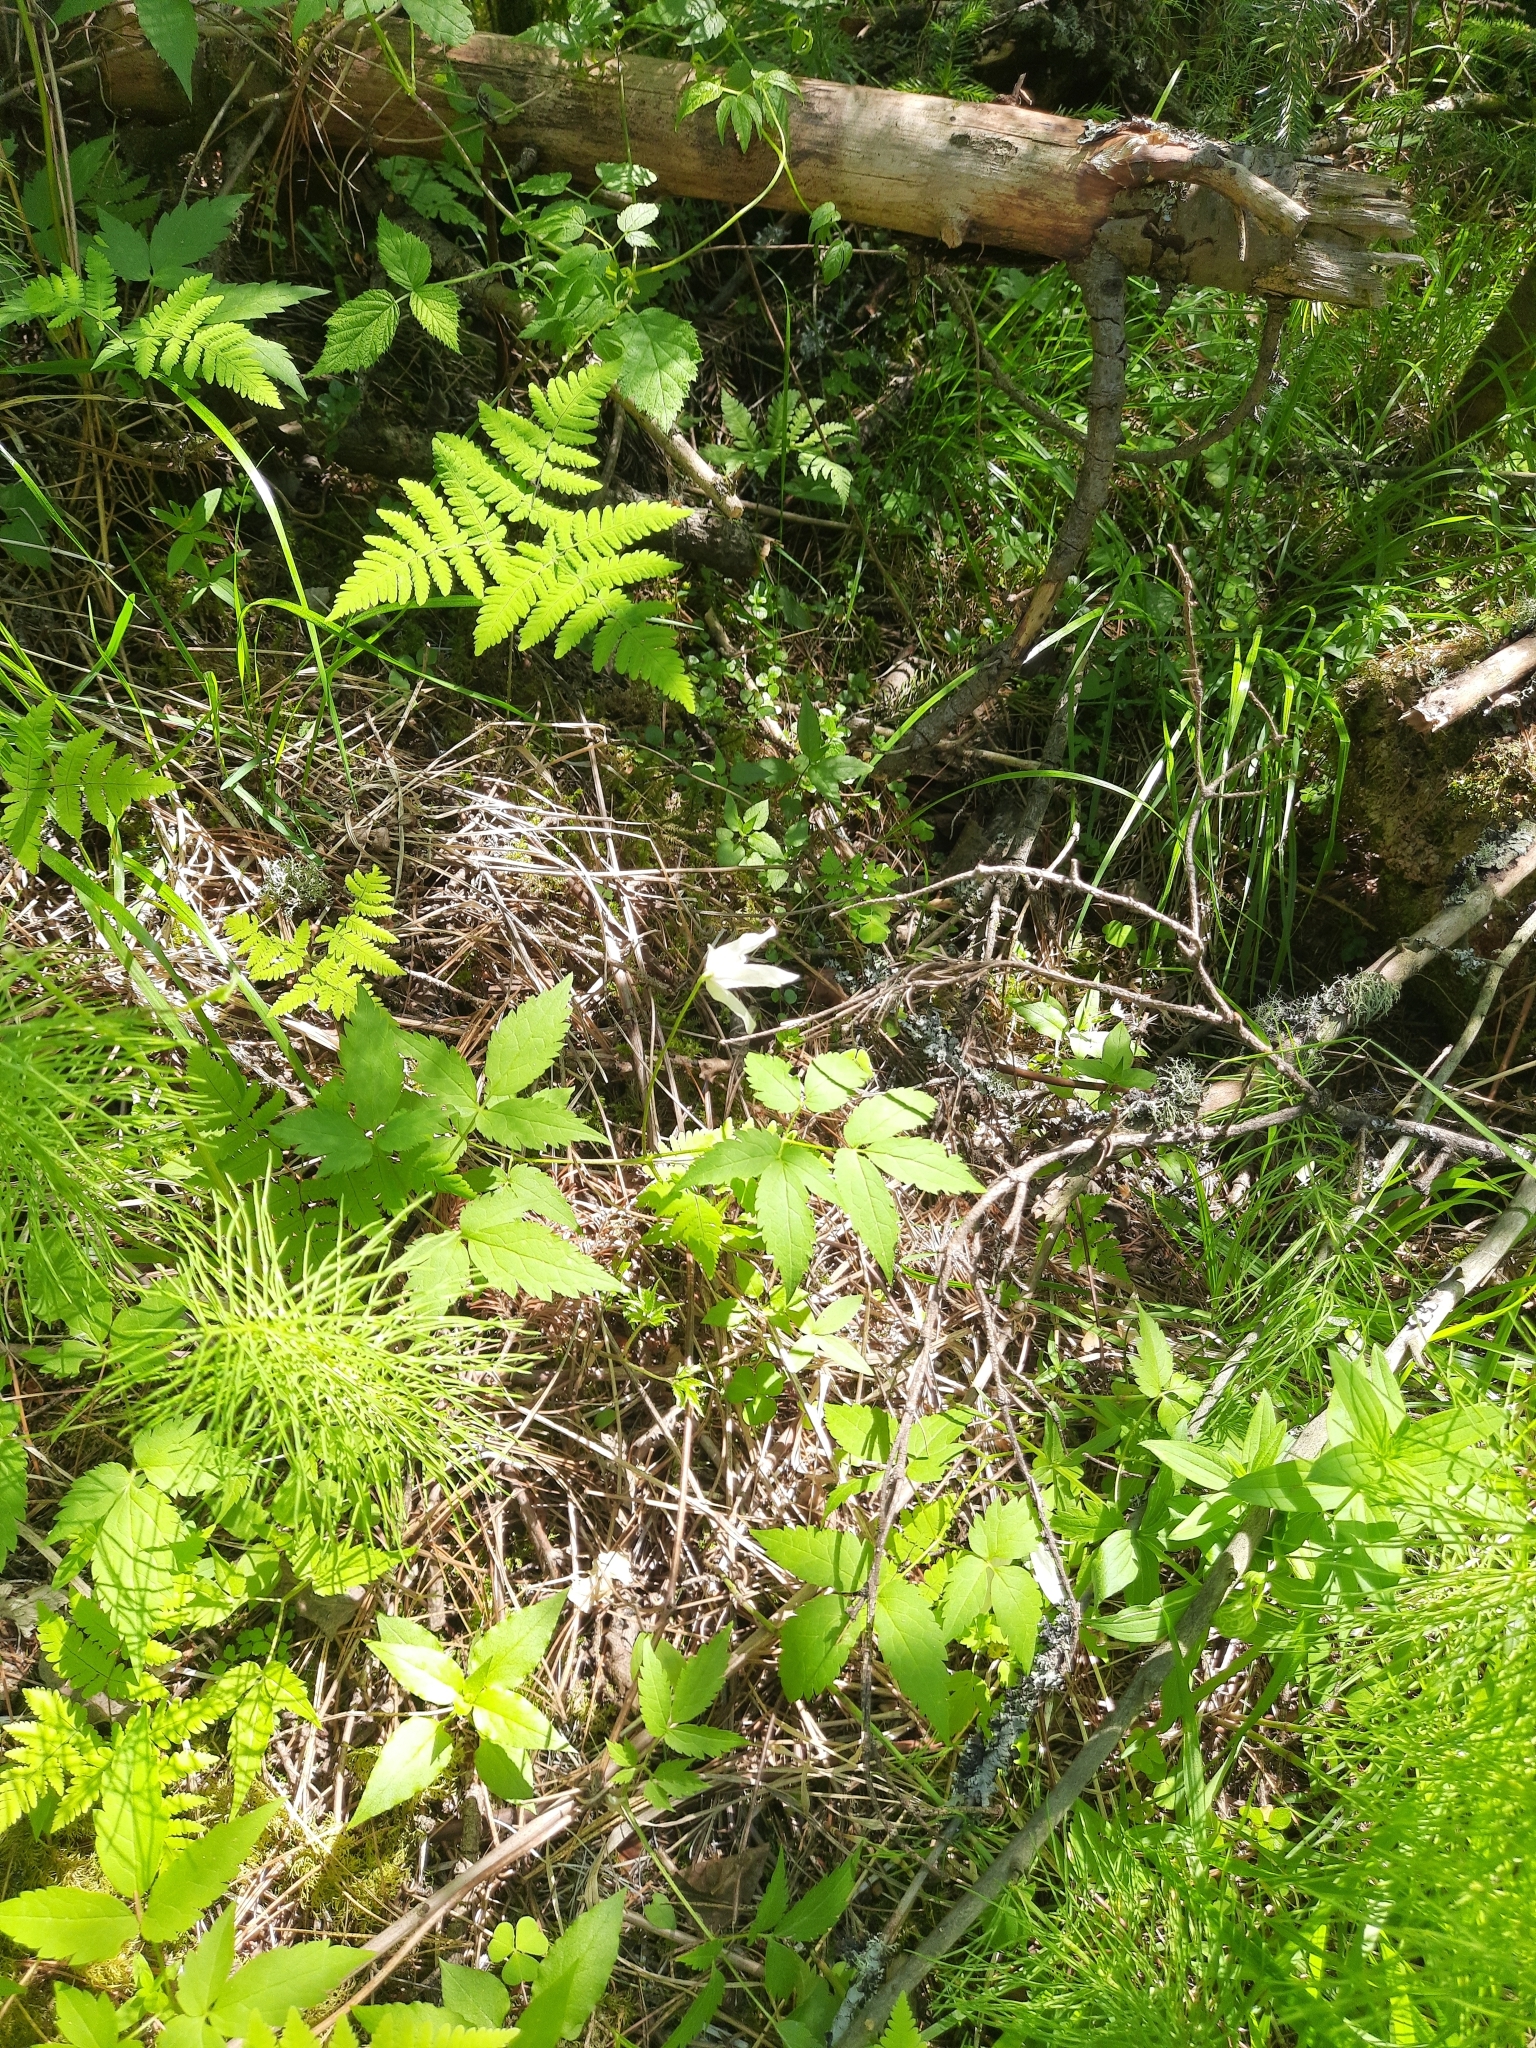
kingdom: Plantae
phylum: Tracheophyta
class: Magnoliopsida
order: Ranunculales
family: Ranunculaceae
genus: Clematis
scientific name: Clematis sibirica
